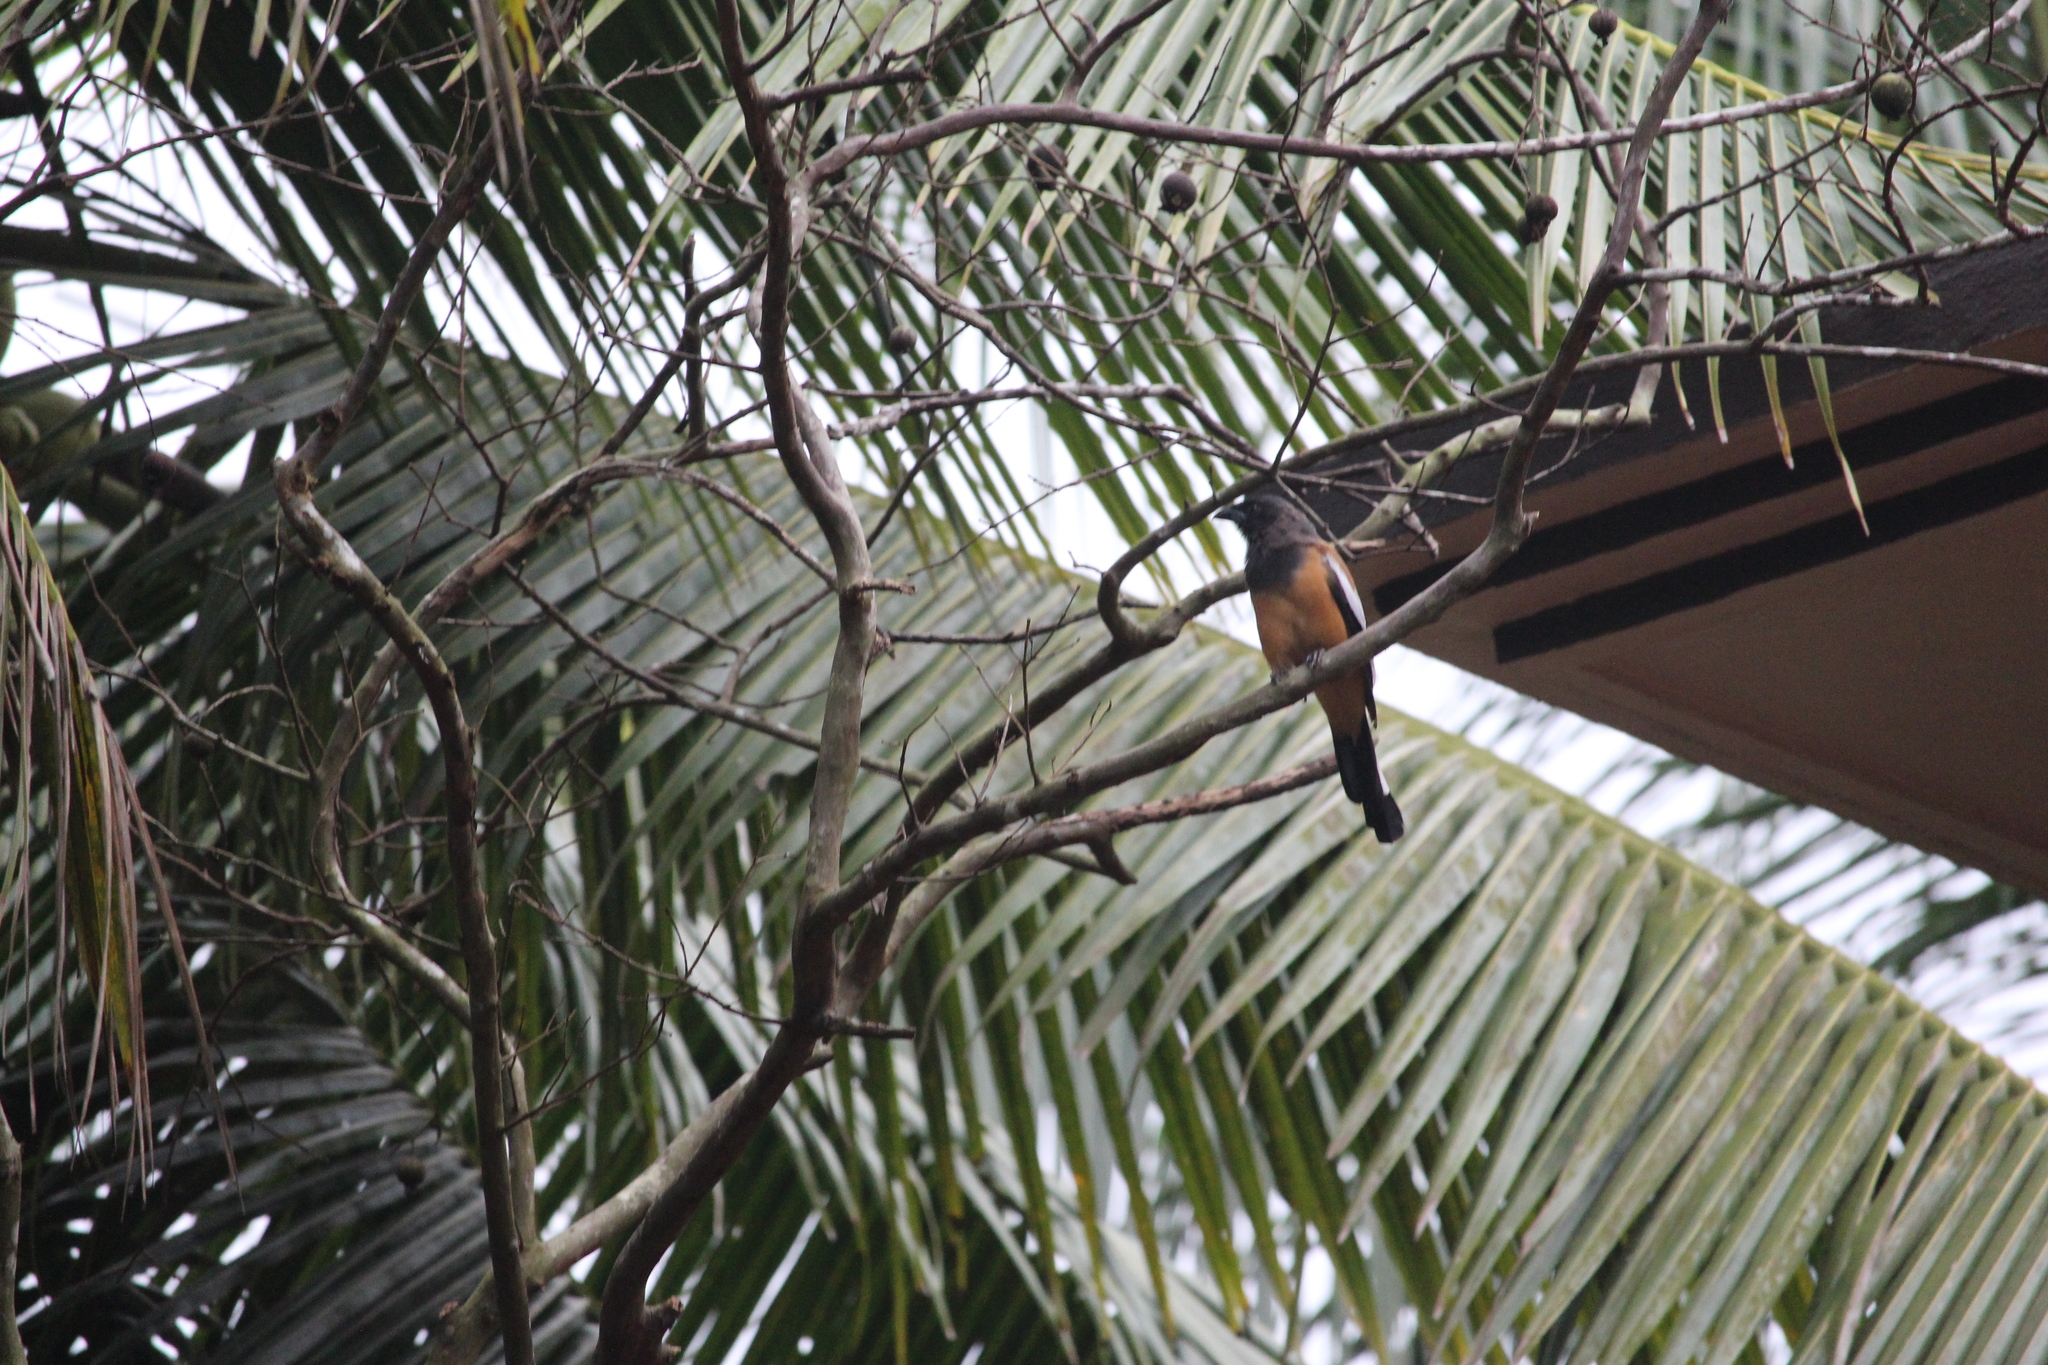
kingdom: Animalia
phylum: Chordata
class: Aves
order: Passeriformes
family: Corvidae
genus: Dendrocitta
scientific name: Dendrocitta vagabunda
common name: Rufous treepie
